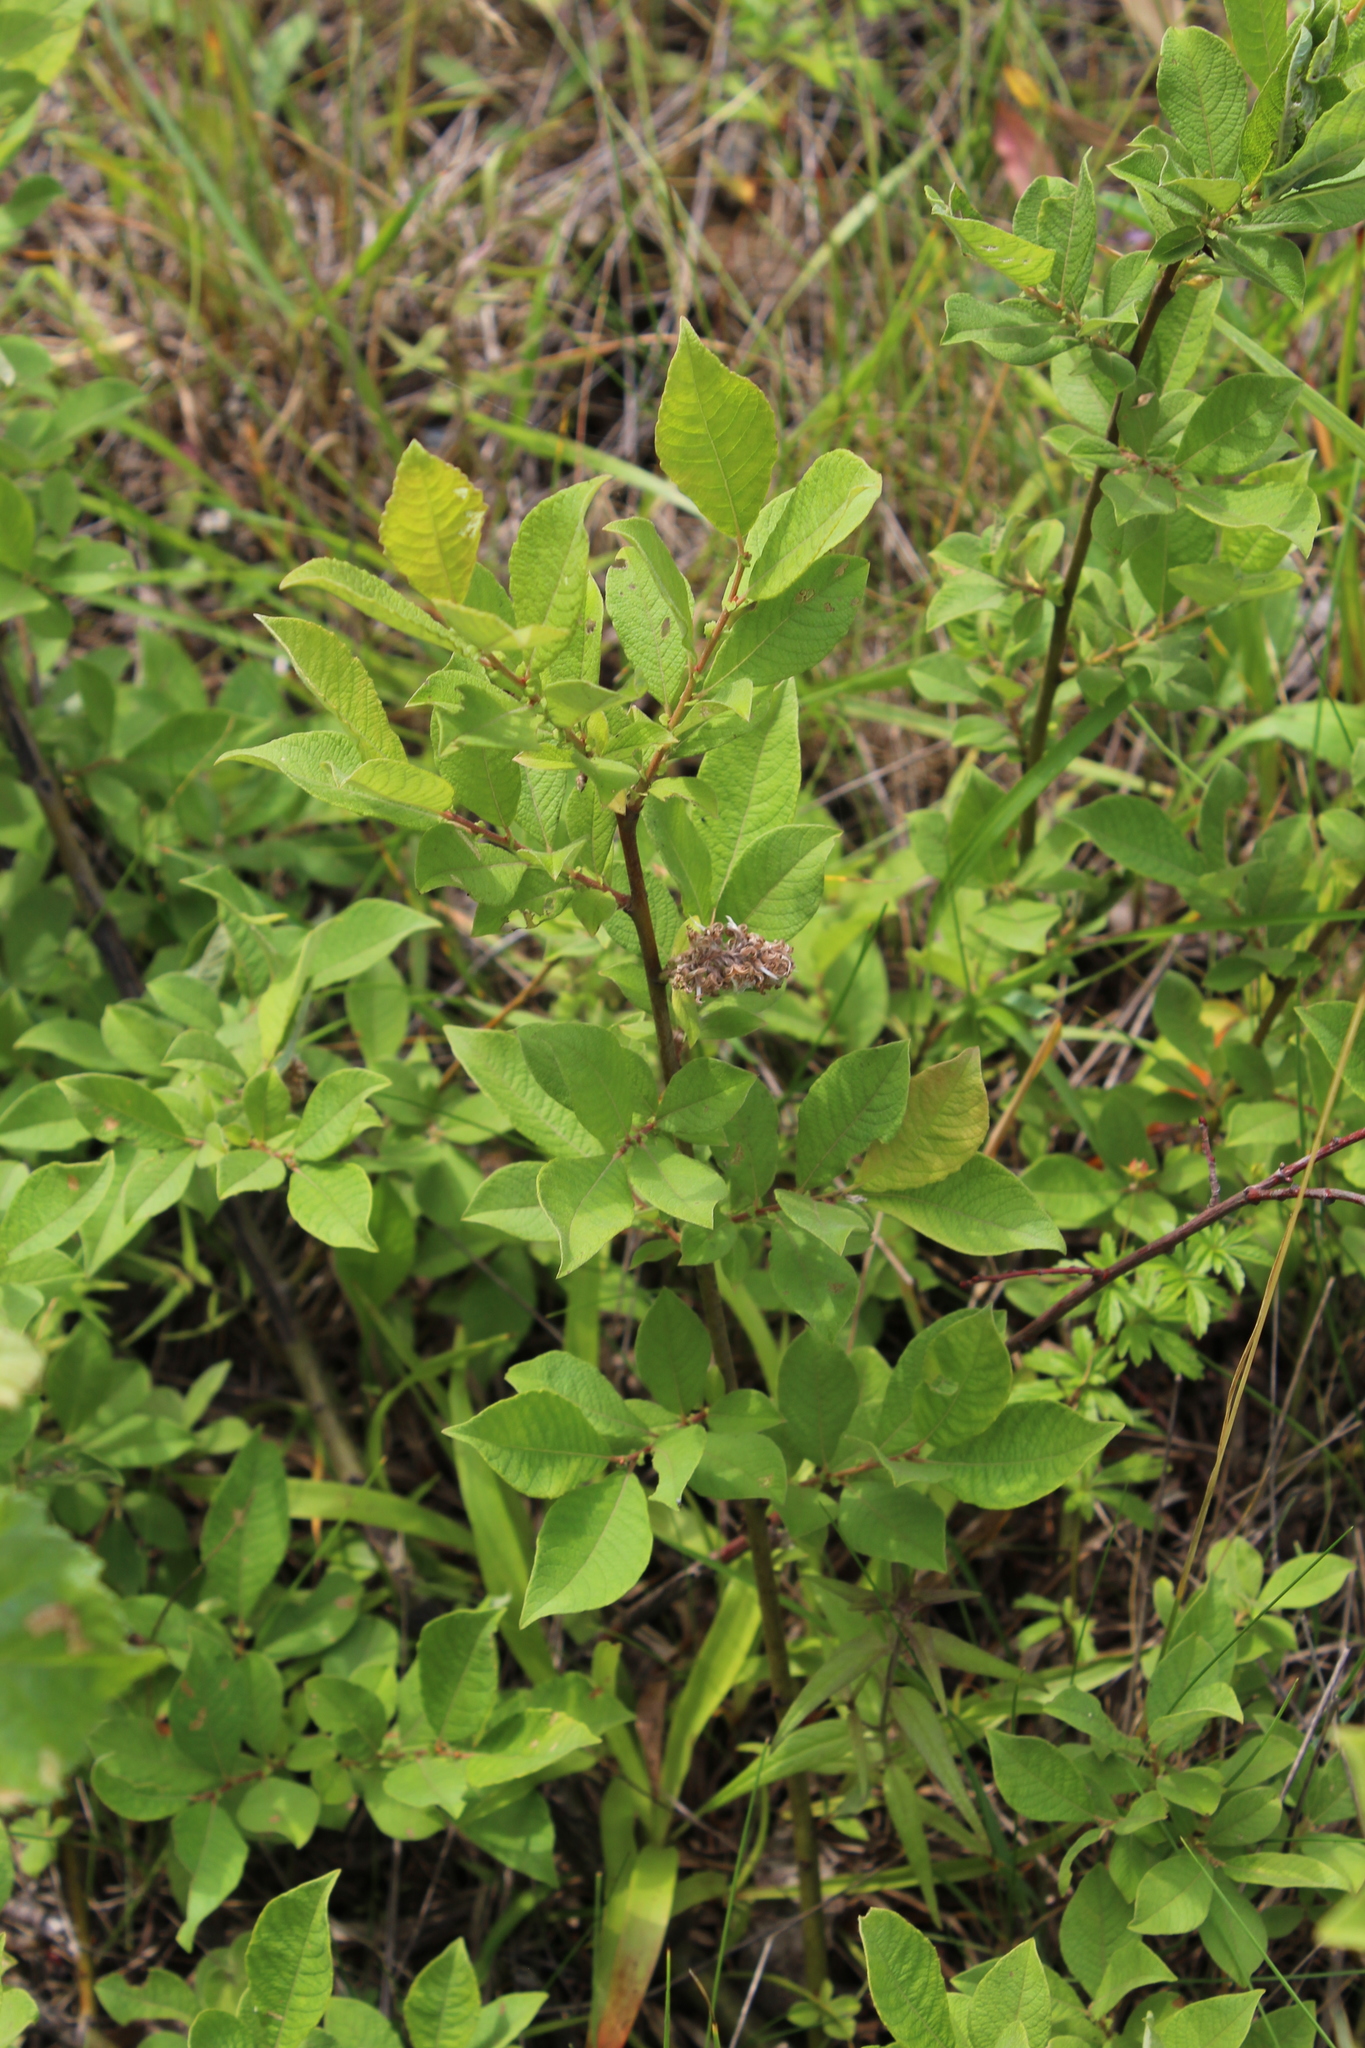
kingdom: Plantae
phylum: Tracheophyta
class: Magnoliopsida
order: Malpighiales
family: Salicaceae
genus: Salix
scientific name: Salix aurita
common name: Eared willow
